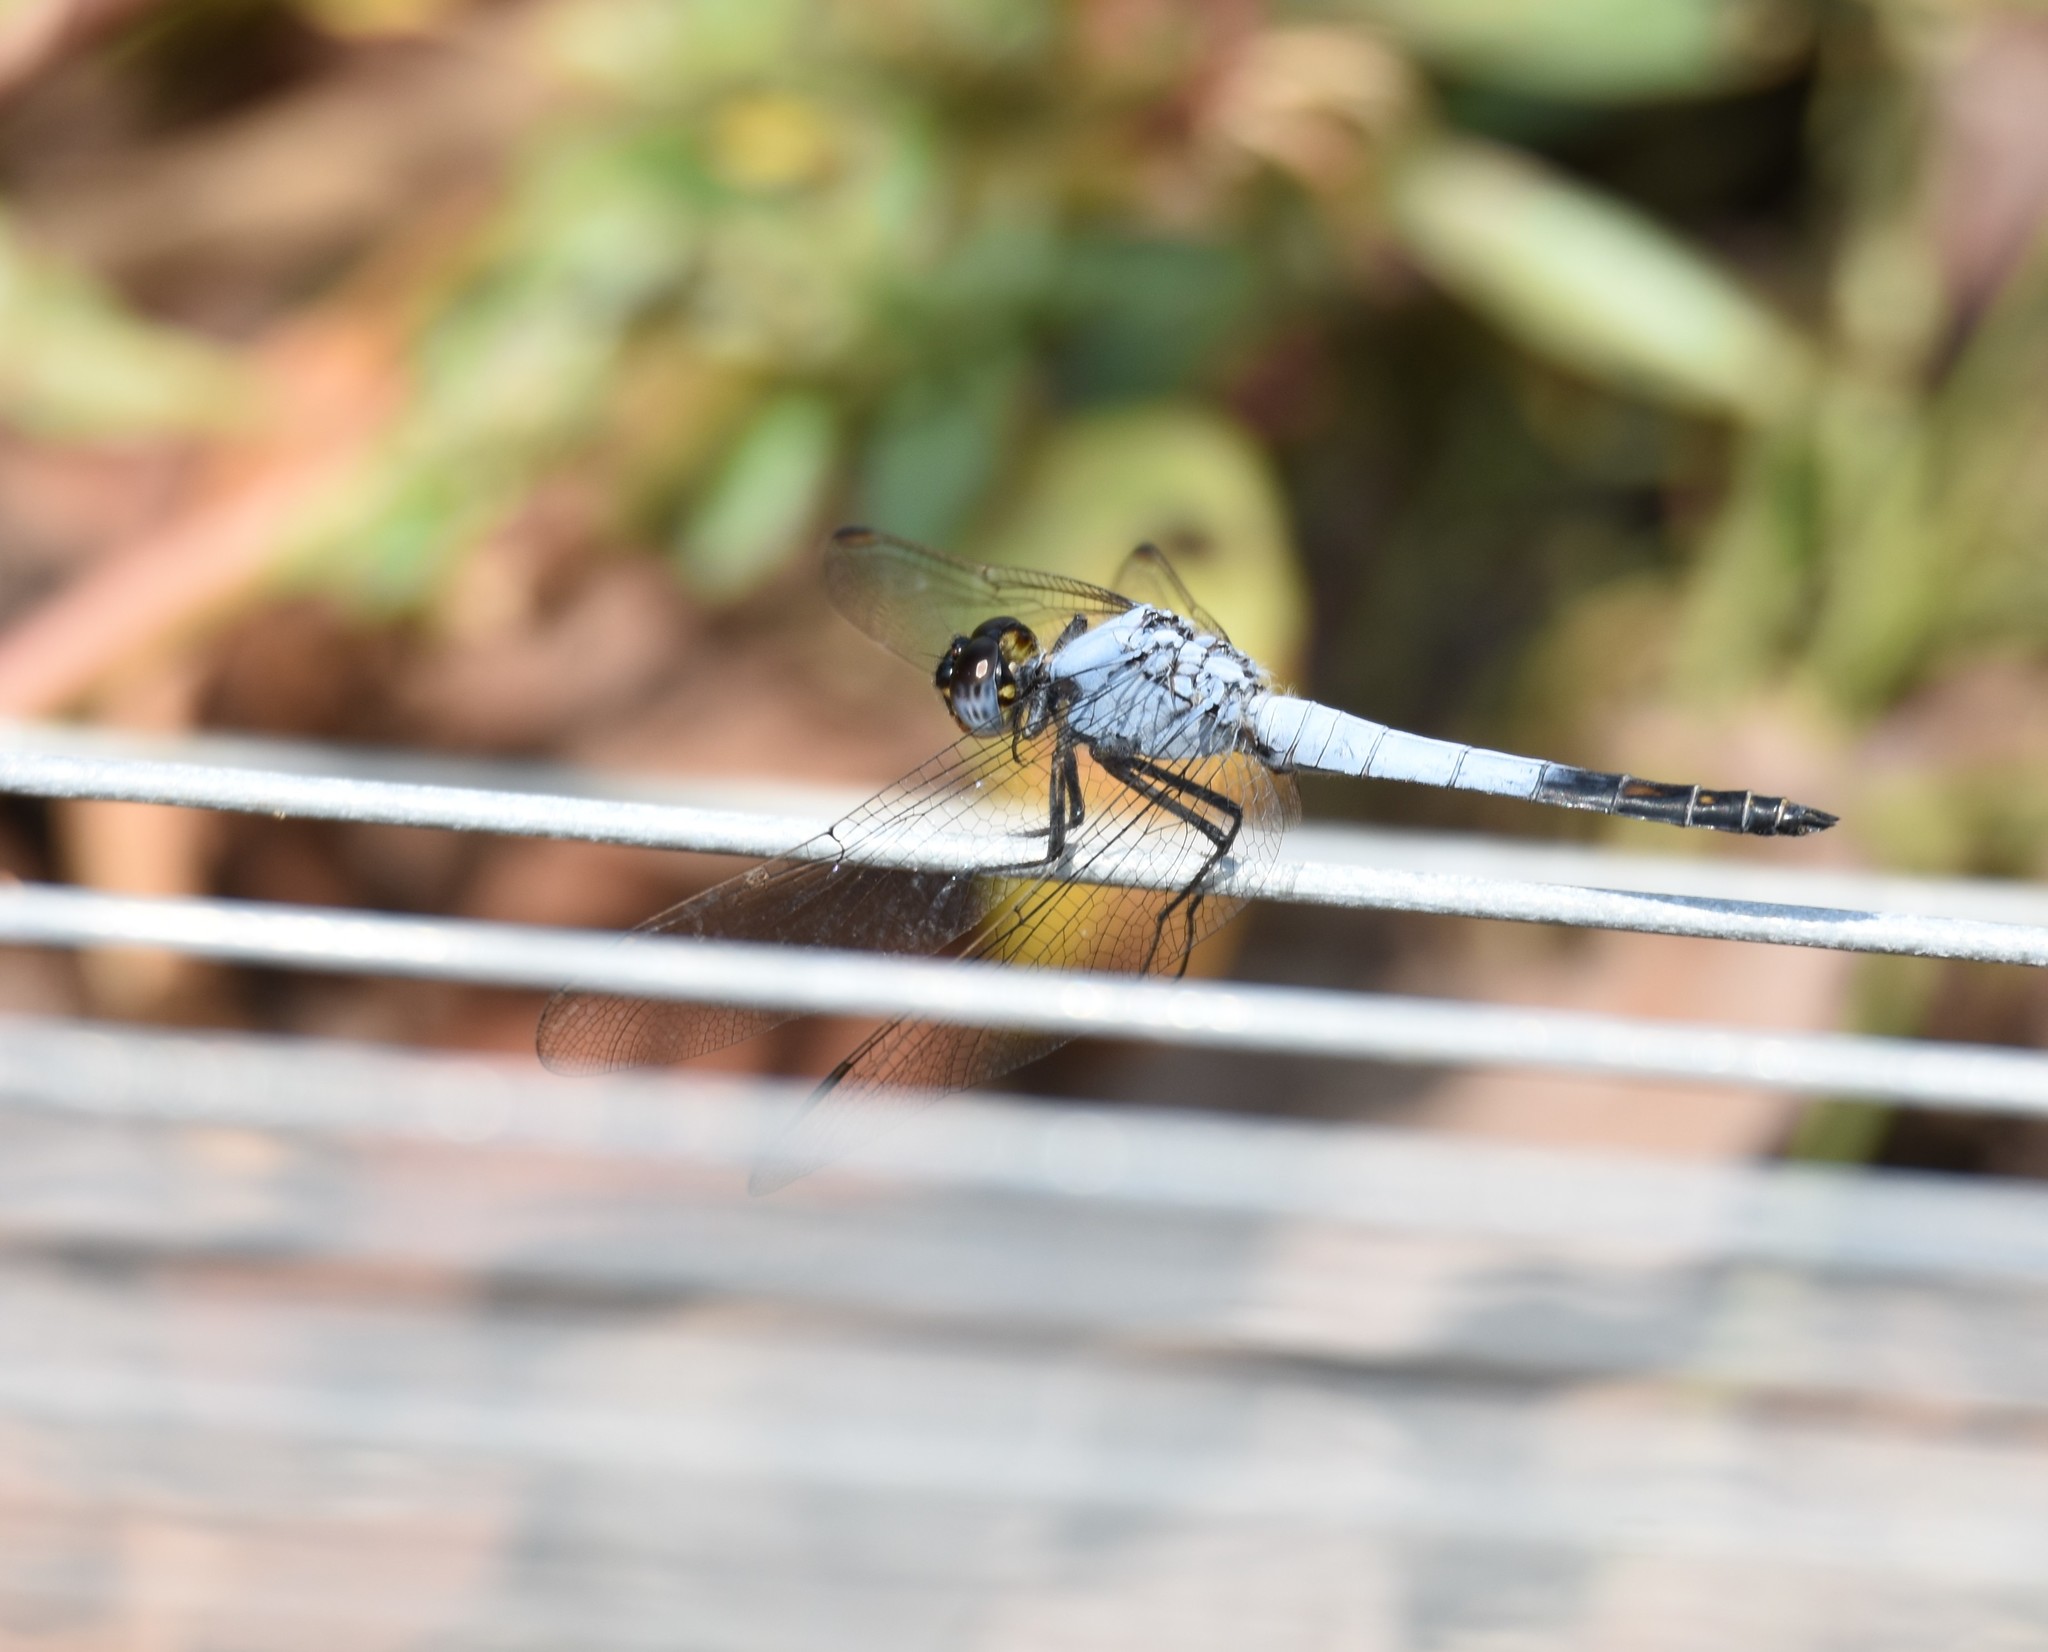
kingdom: Animalia
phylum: Arthropoda
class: Insecta
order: Odonata
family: Libellulidae
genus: Nesciothemis
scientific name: Nesciothemis farinosa
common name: Eastern blacktail
